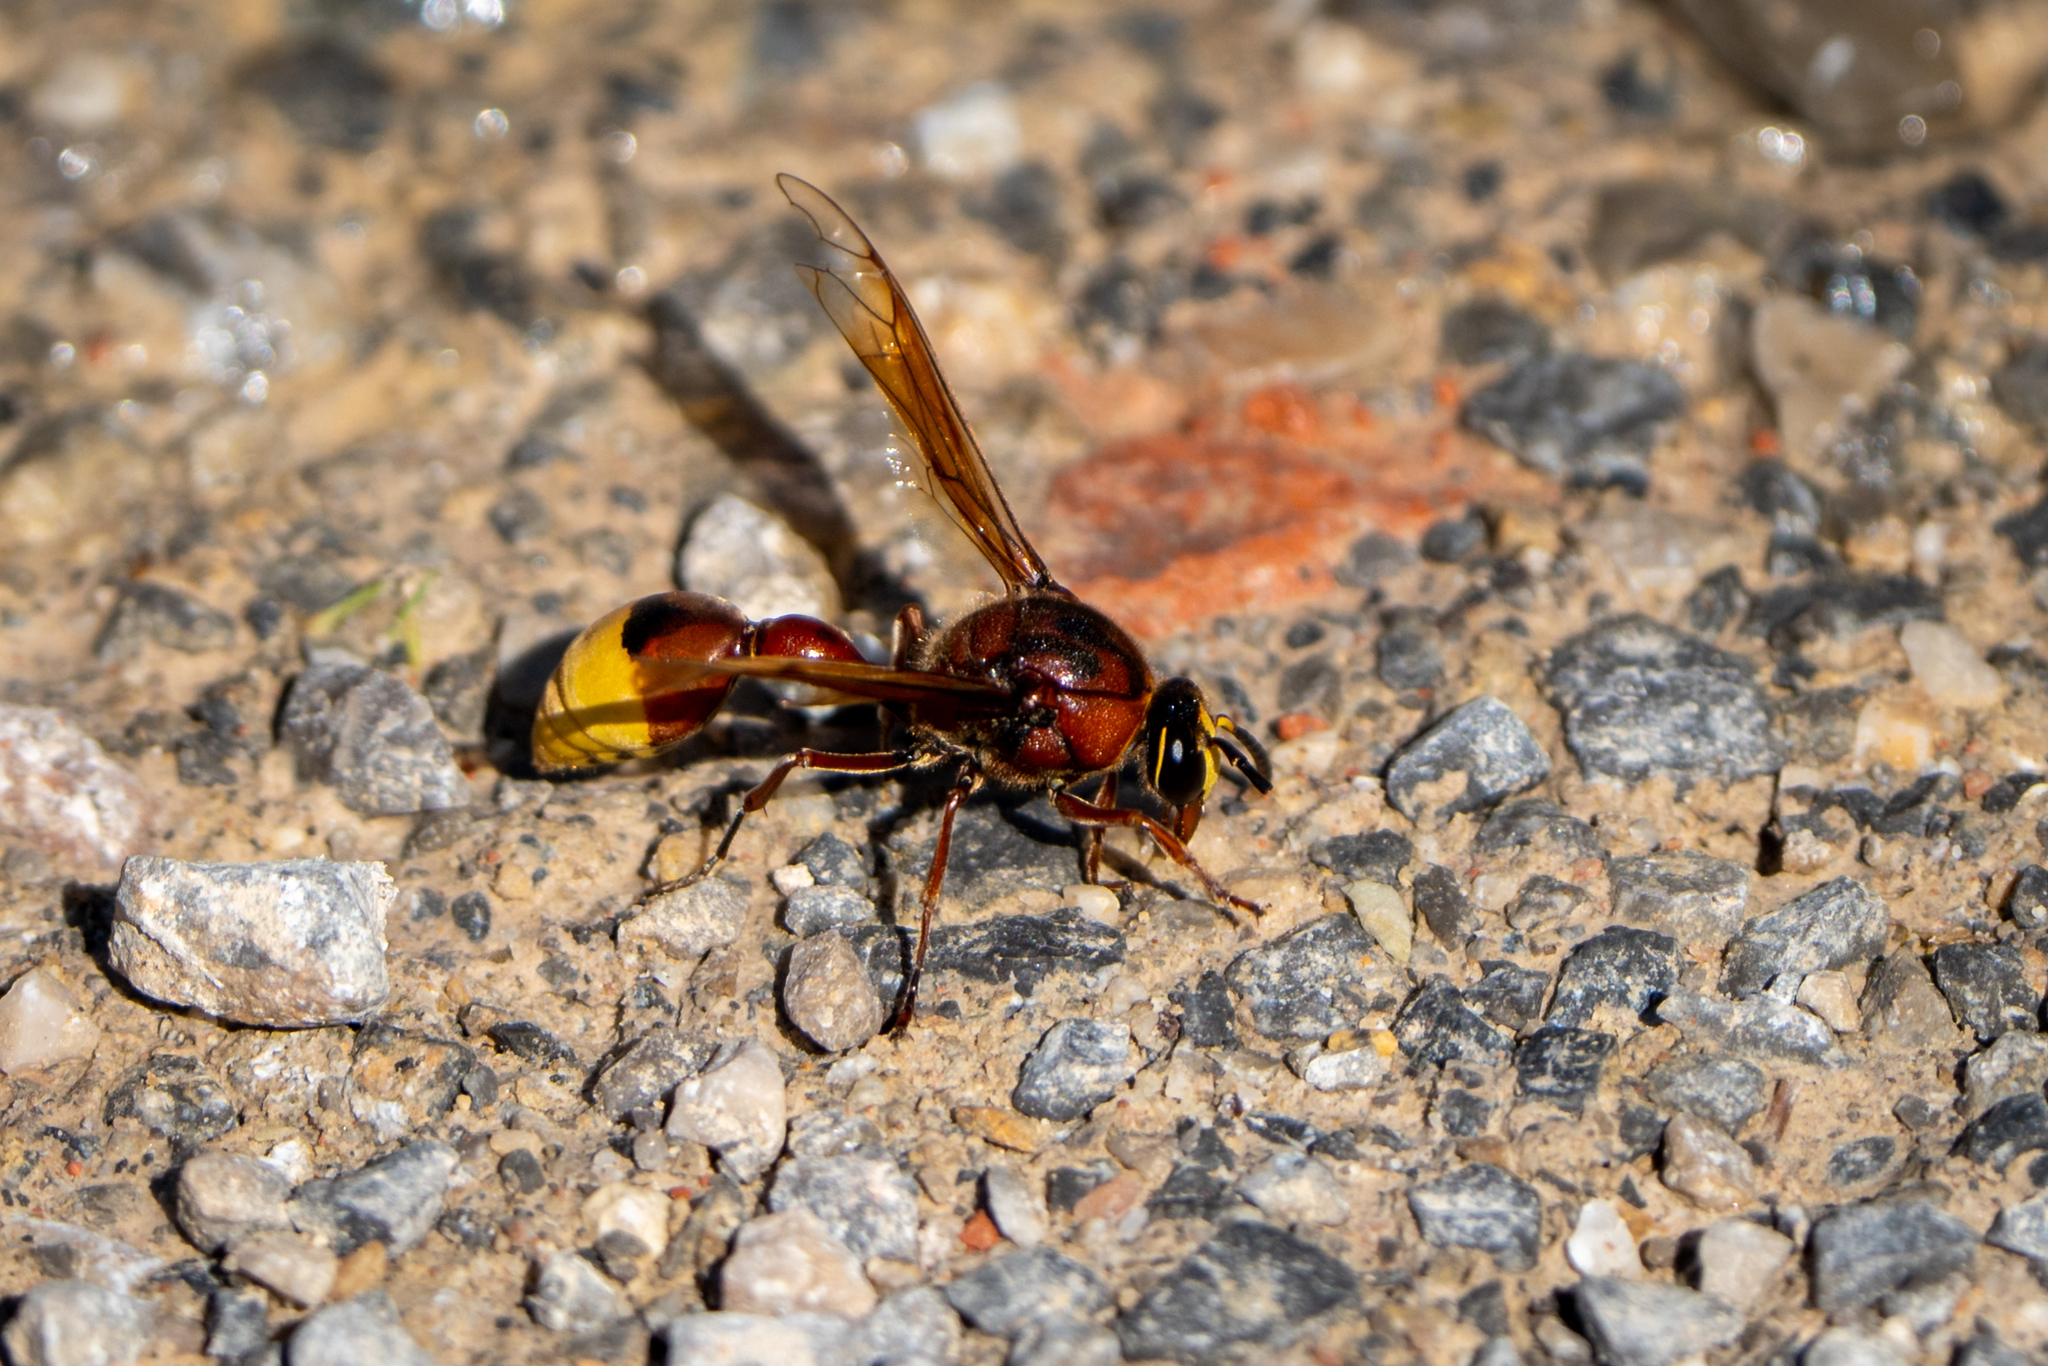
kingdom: Animalia
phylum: Arthropoda
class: Insecta
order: Hymenoptera
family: Eumenidae
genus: Delta
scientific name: Delta unguiculatum
